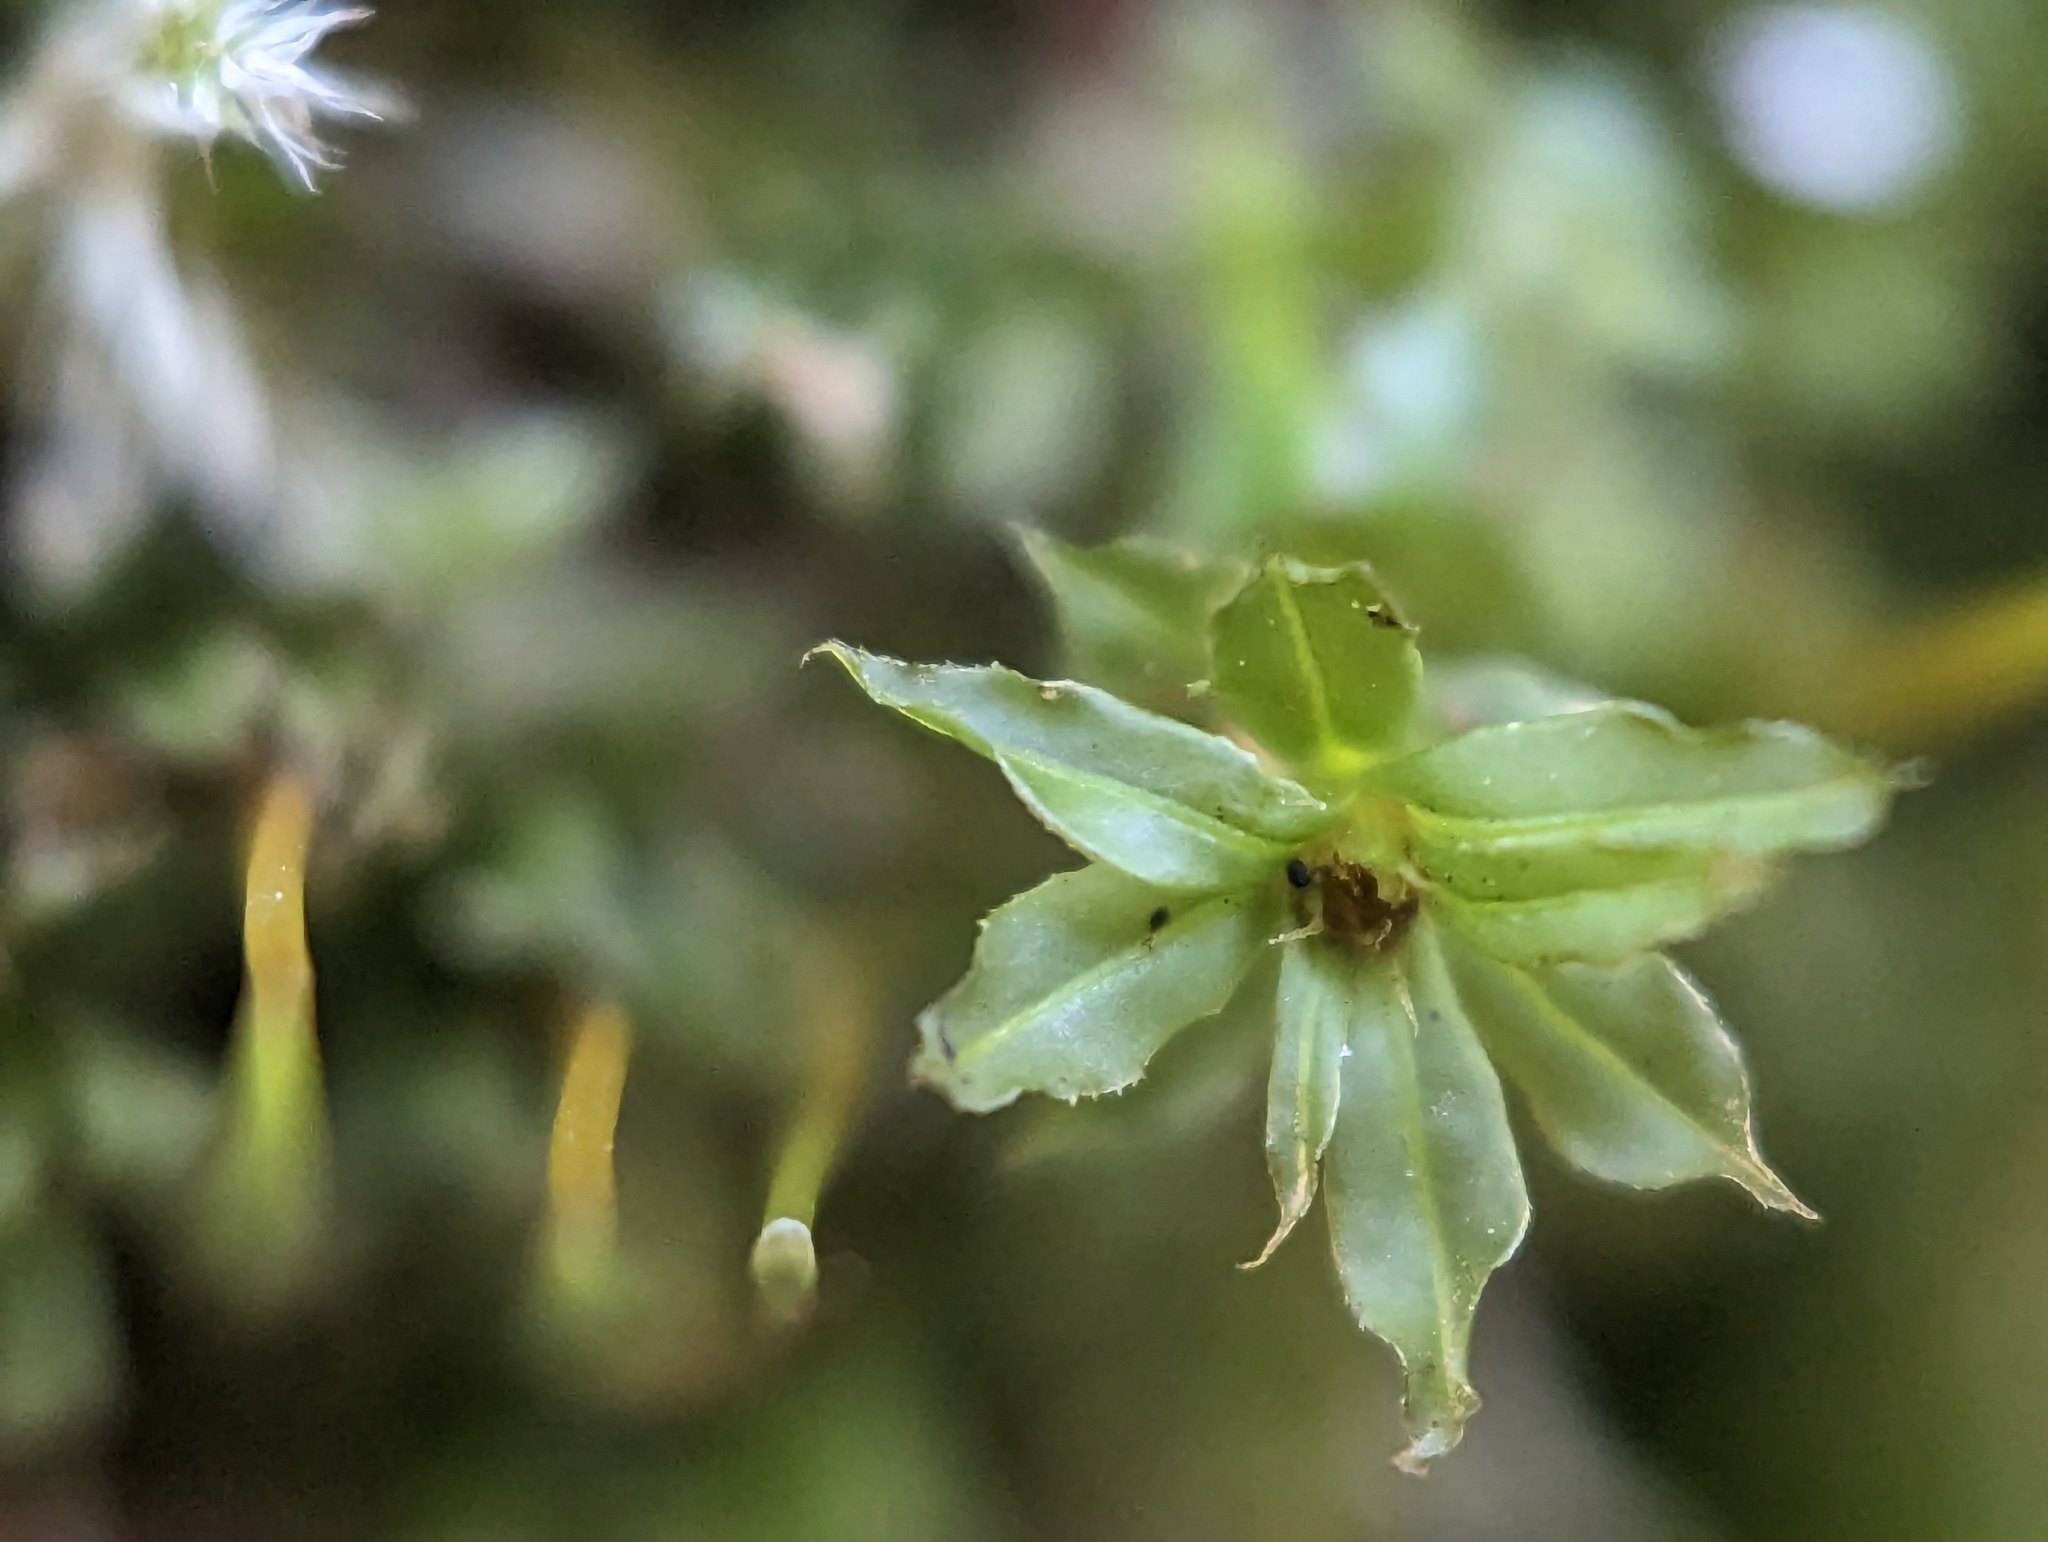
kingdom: Plantae
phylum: Bryophyta
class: Bryopsida
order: Bryales
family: Mniaceae
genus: Plagiomnium
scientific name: Plagiomnium cuspidatum
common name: Woodsy leafy moss
